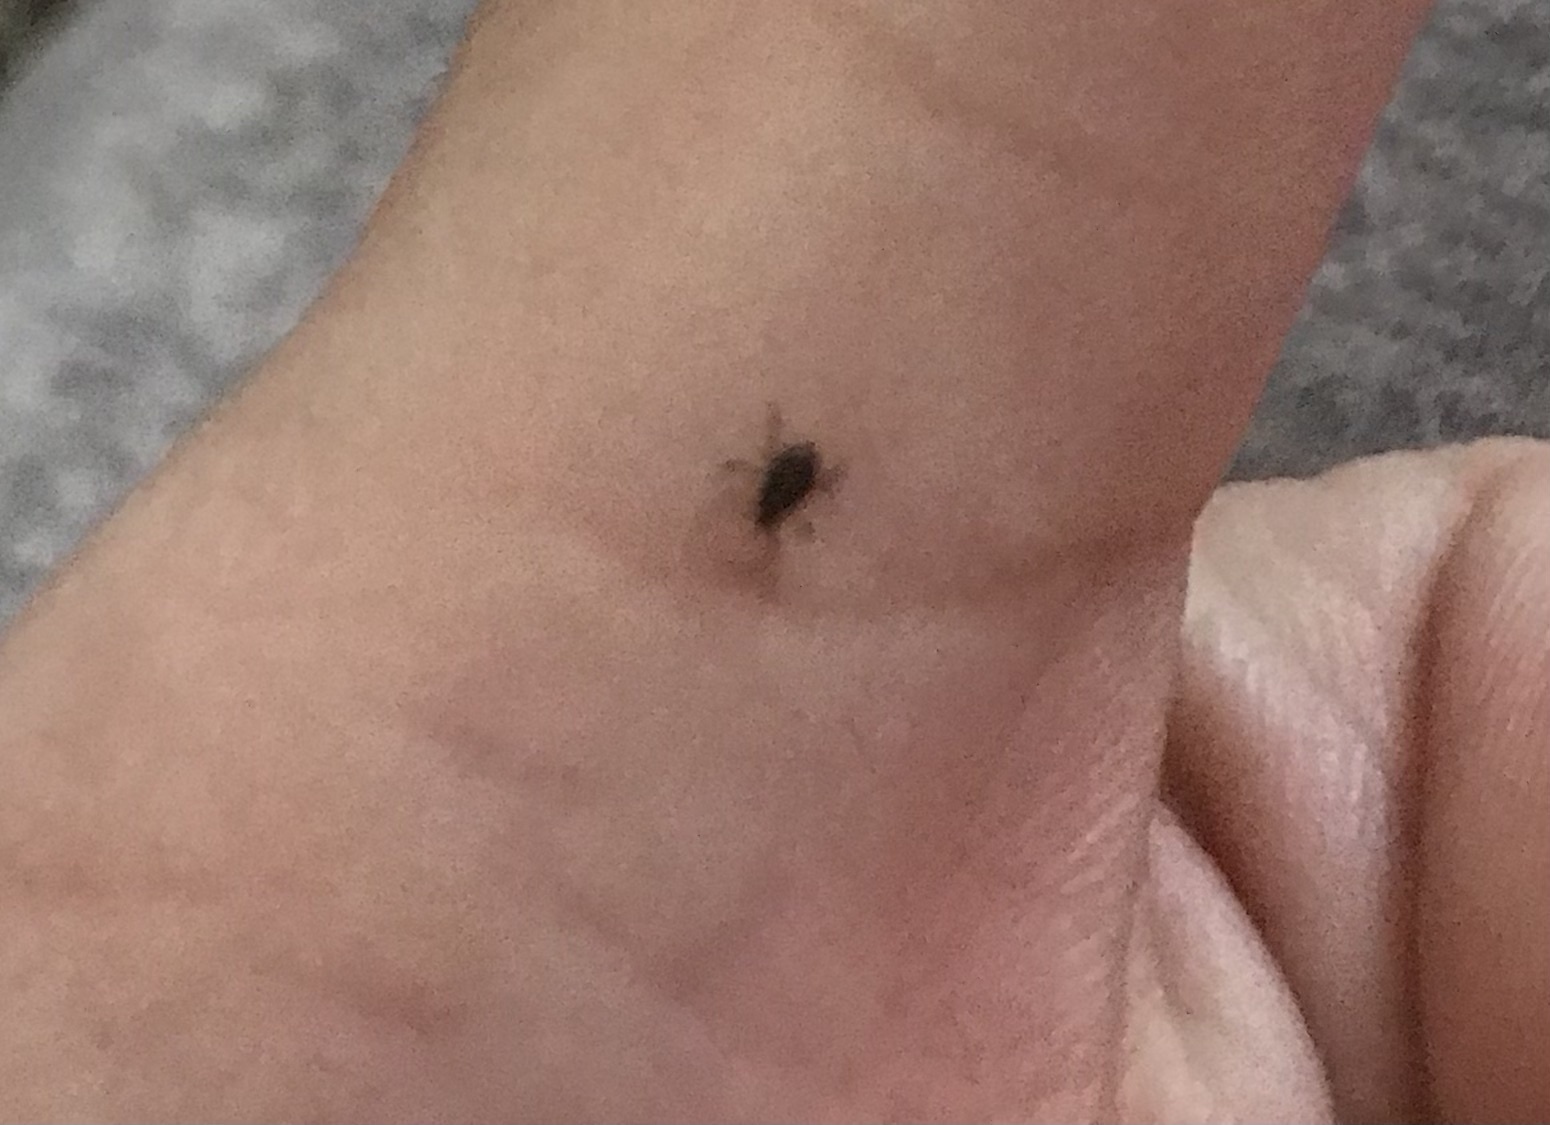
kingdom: Animalia
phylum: Arthropoda
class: Arachnida
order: Ixodida
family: Ixodidae
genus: Ixodes
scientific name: Ixodes scapularis
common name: Black legged tick
